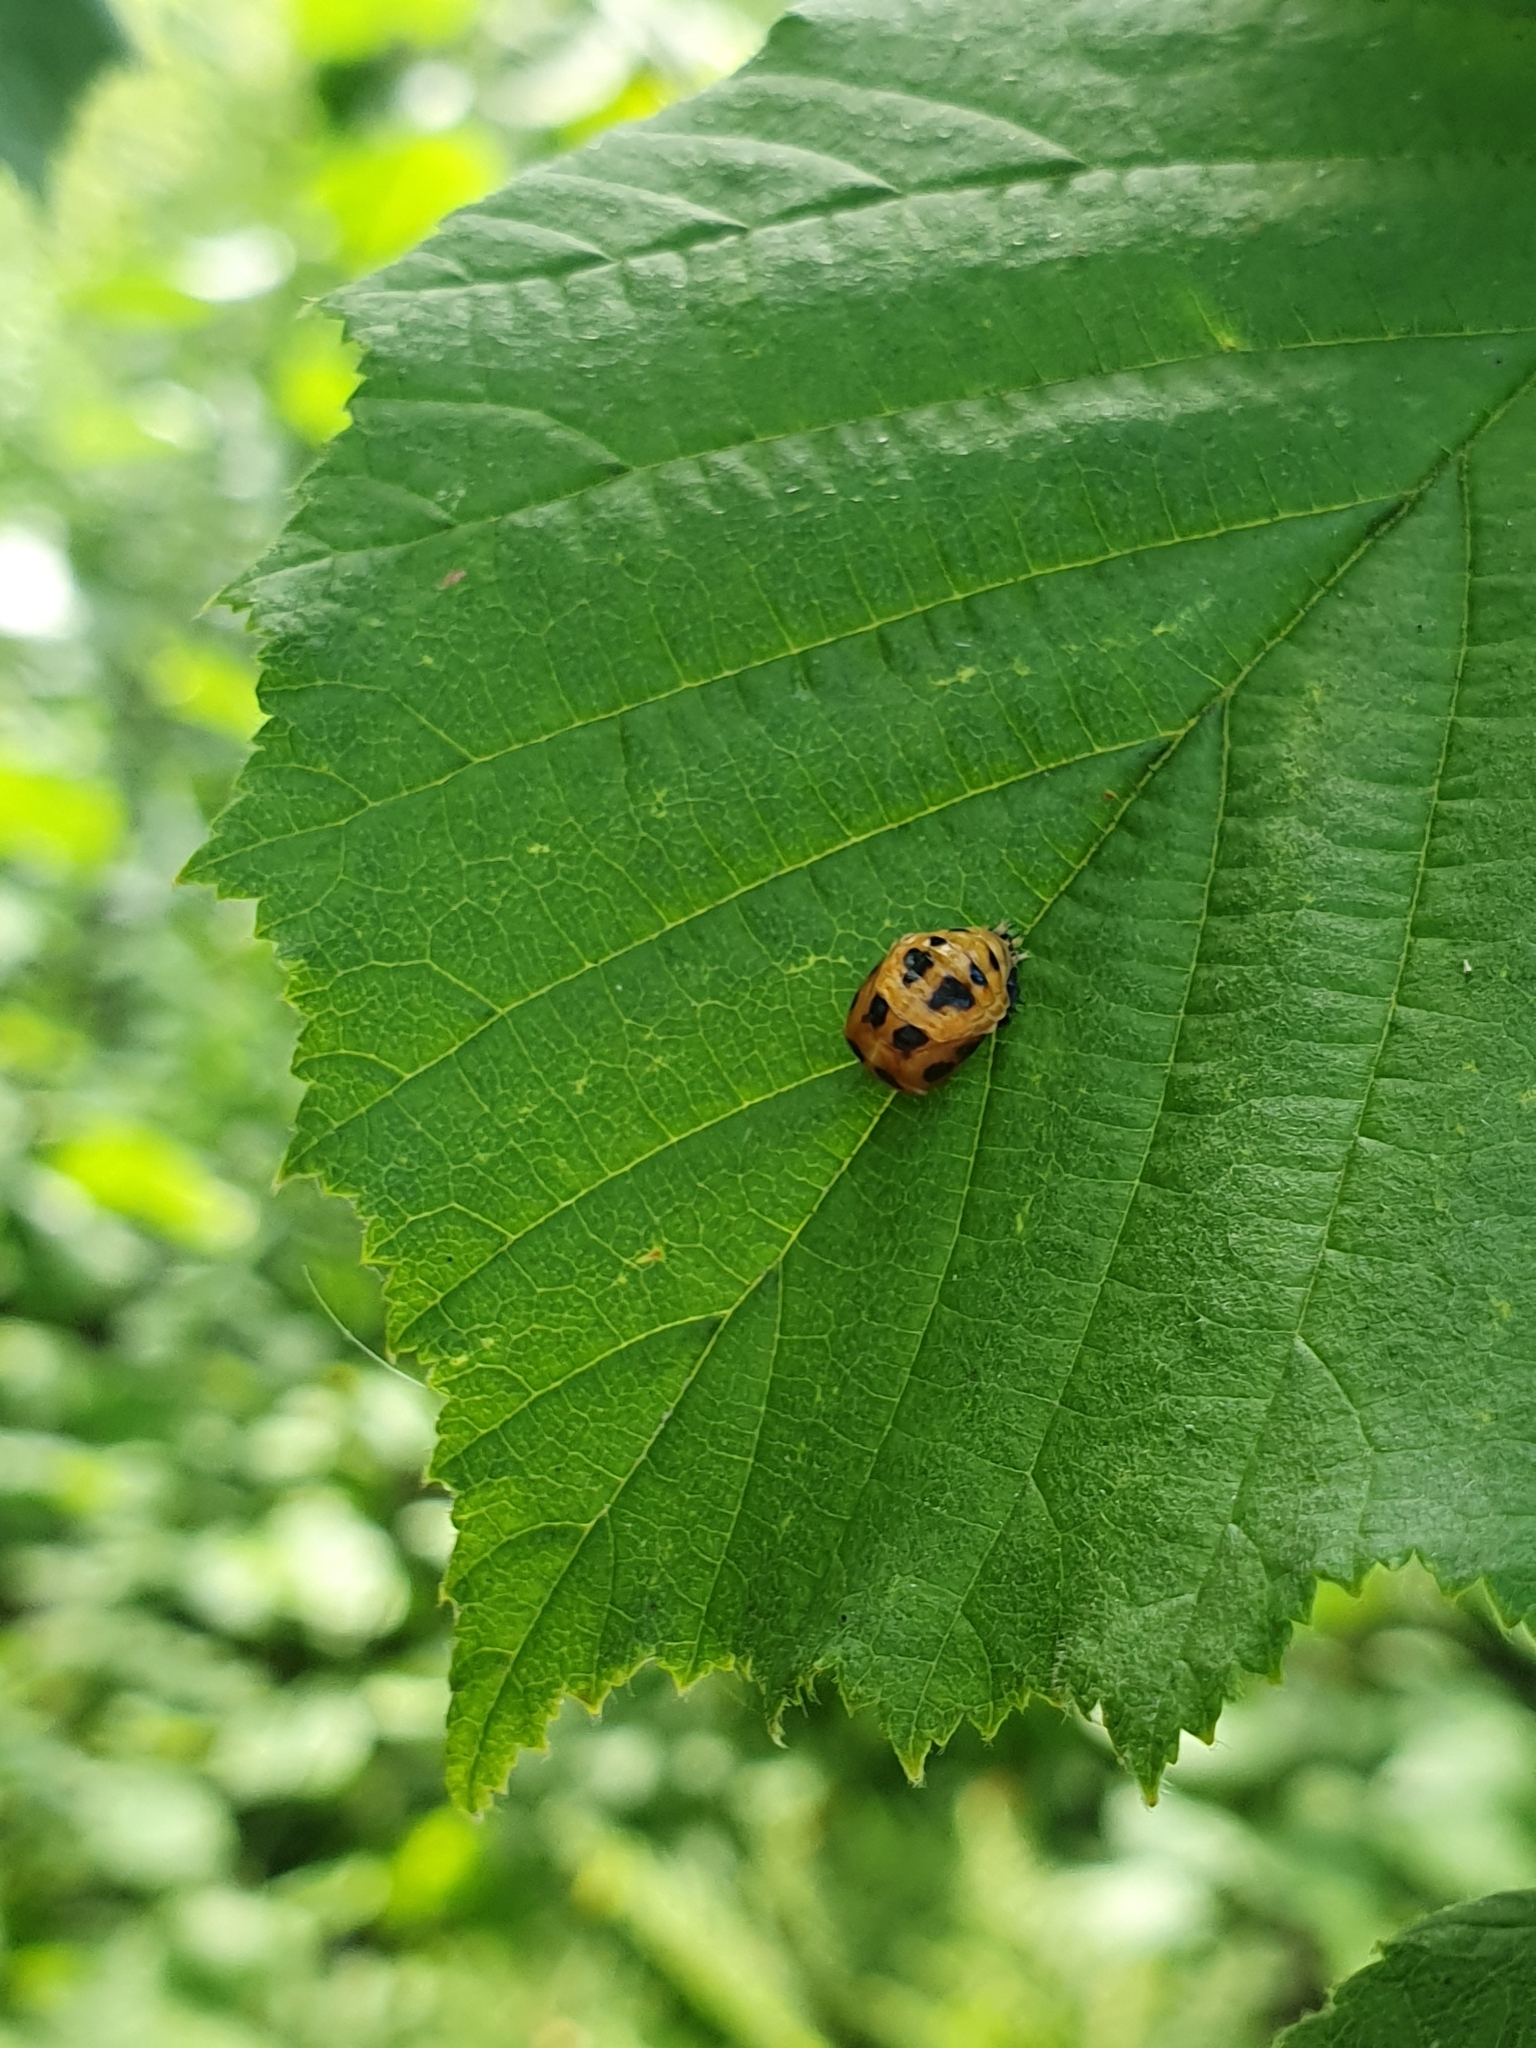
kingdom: Animalia
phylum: Arthropoda
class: Insecta
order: Coleoptera
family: Coccinellidae
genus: Harmonia
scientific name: Harmonia axyridis
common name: Harlequin ladybird
